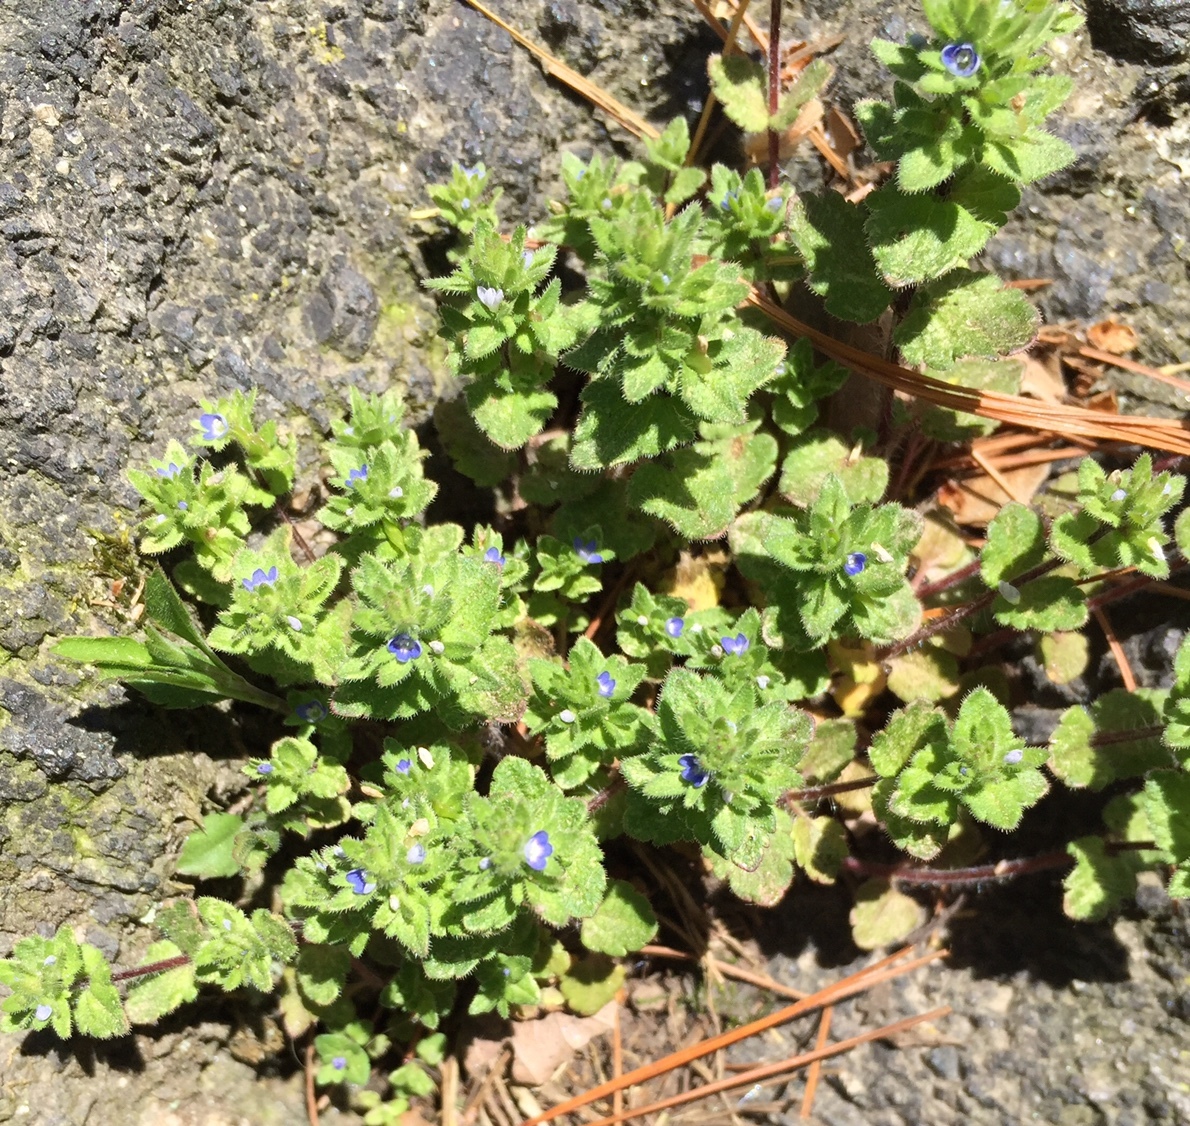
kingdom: Plantae
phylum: Tracheophyta
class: Magnoliopsida
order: Lamiales
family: Plantaginaceae
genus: Veronica
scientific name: Veronica arvensis
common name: Corn speedwell
